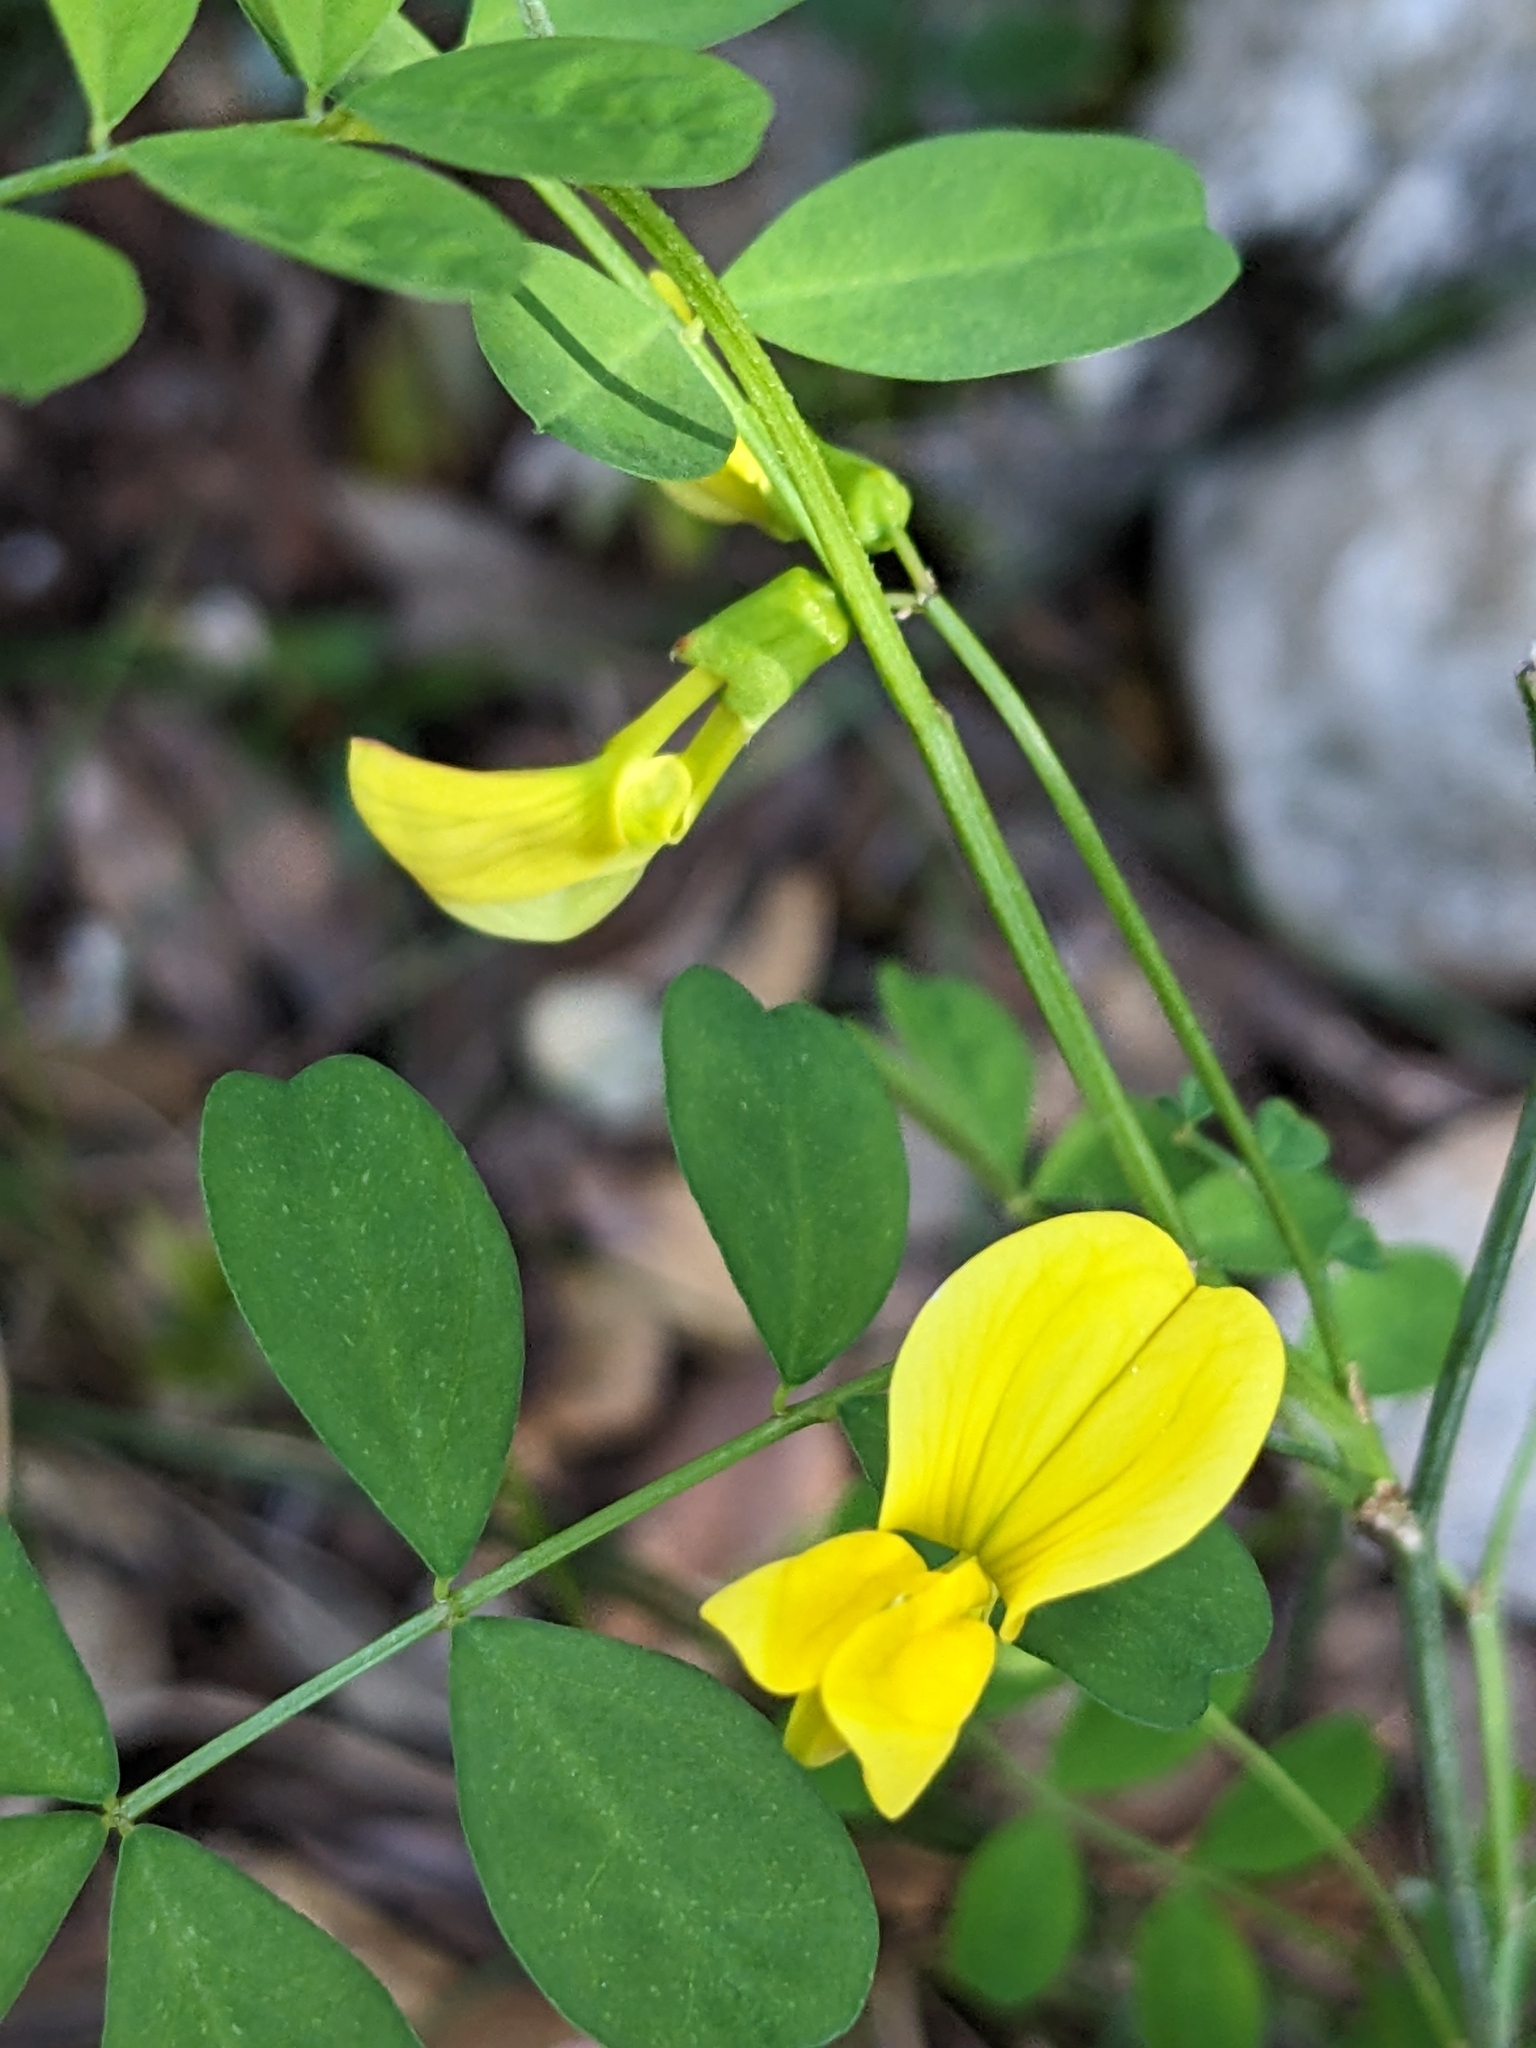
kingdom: Plantae
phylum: Tracheophyta
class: Magnoliopsida
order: Fabales
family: Fabaceae
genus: Hippocrepis
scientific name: Hippocrepis emerus
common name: Scorpion senna
